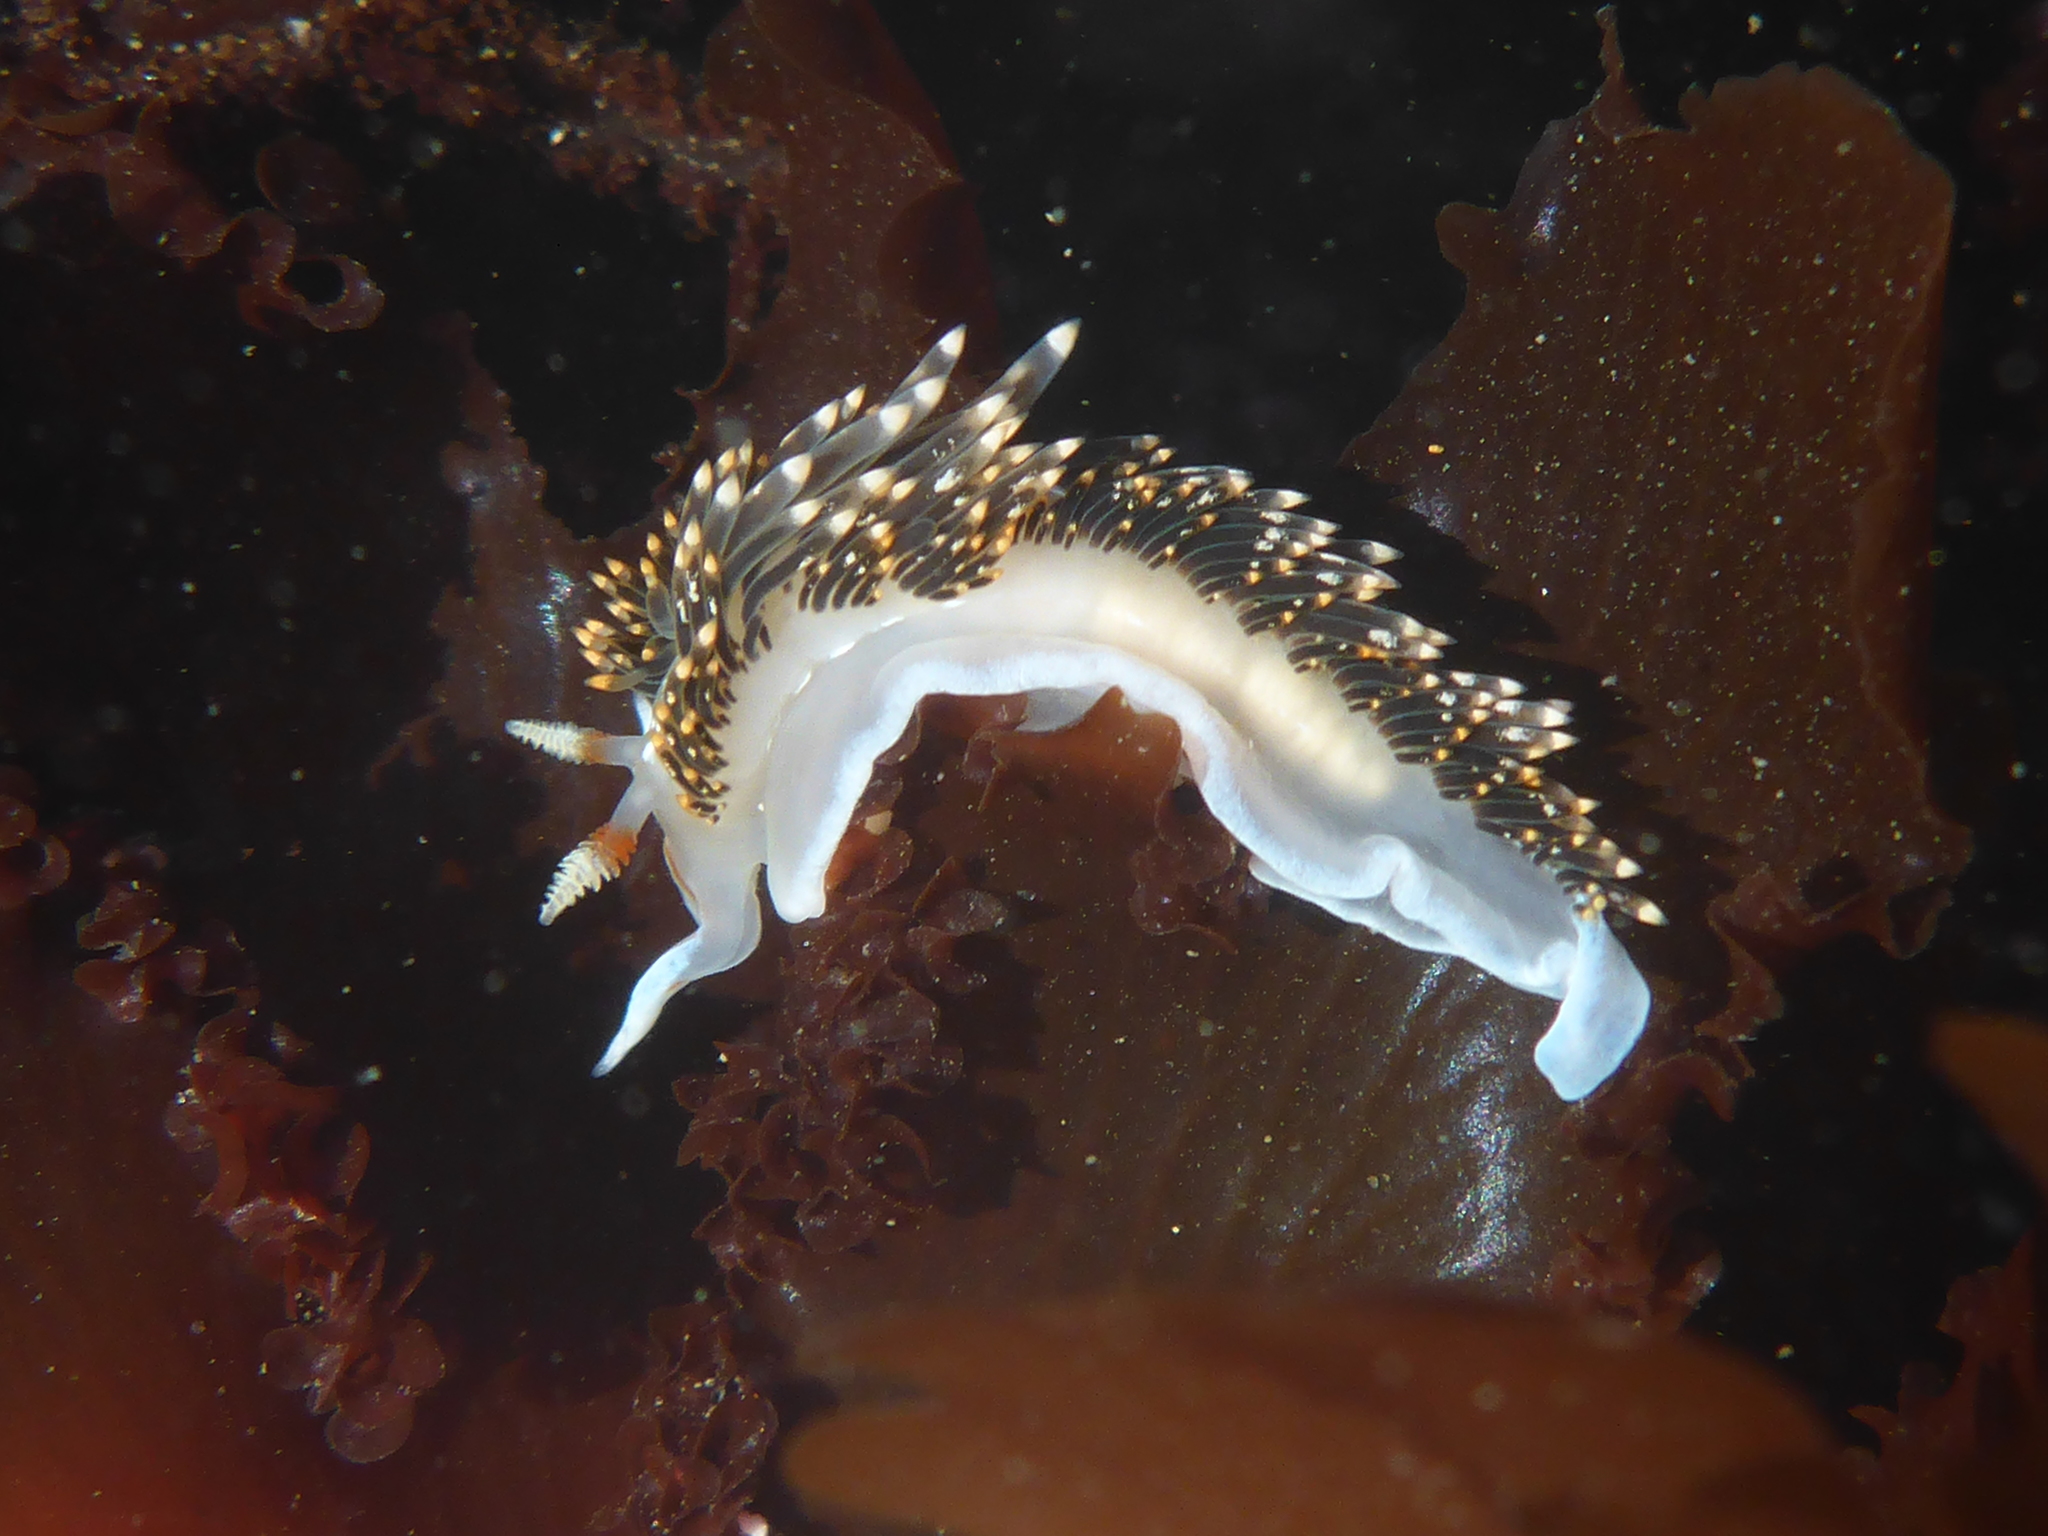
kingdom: Animalia
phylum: Mollusca
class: Gastropoda
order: Nudibranchia
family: Facelinidae
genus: Phidiana
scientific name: Phidiana hiltoni
